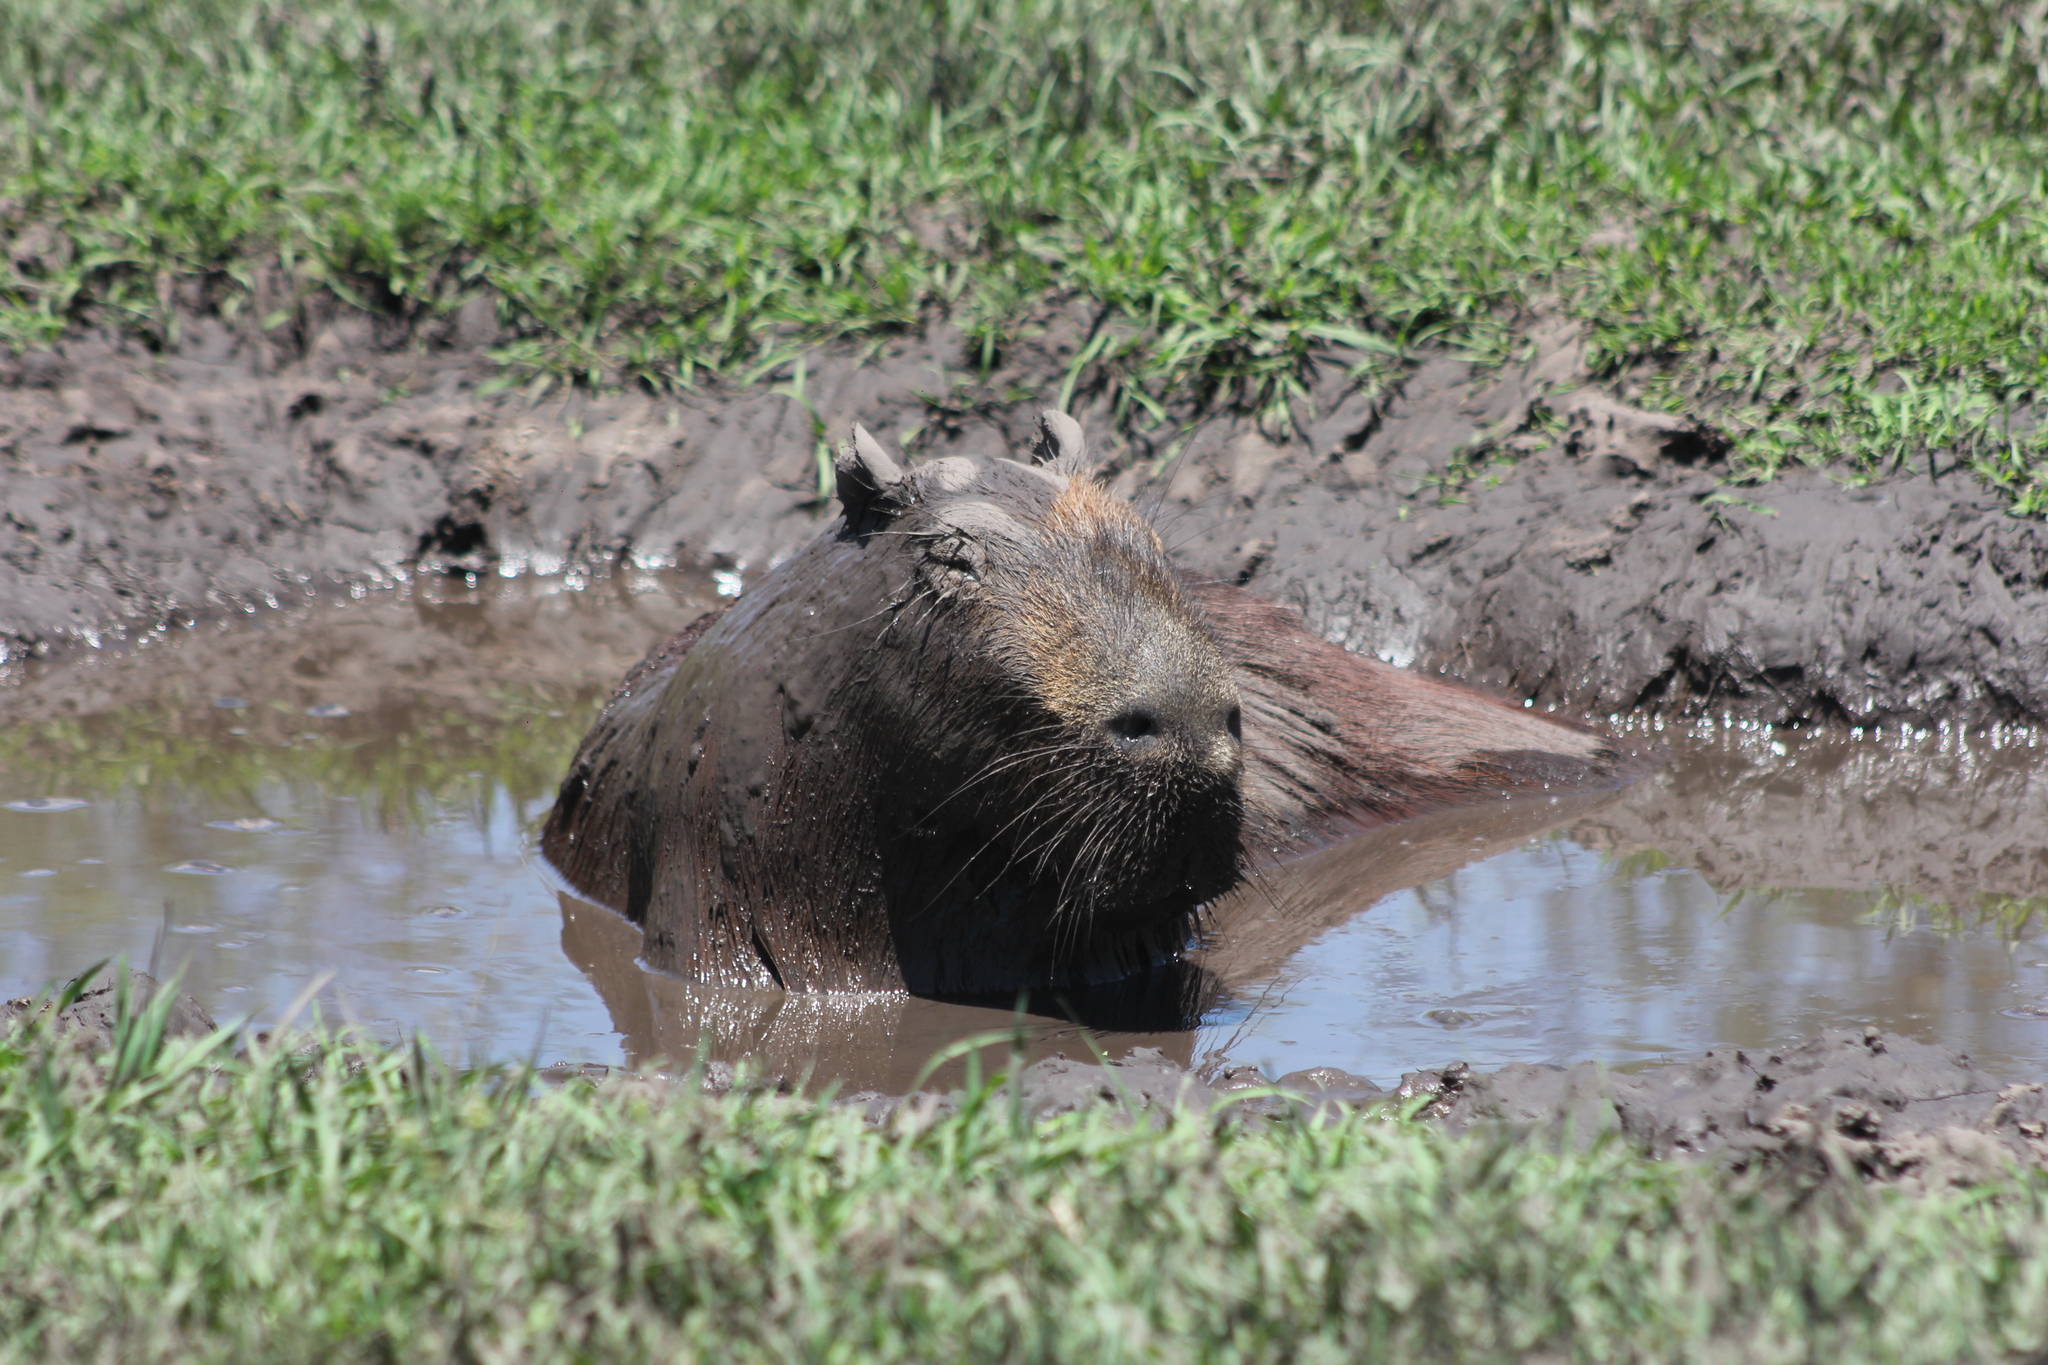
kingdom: Animalia
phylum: Chordata
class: Mammalia
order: Rodentia
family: Caviidae
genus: Hydrochoerus
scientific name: Hydrochoerus hydrochaeris
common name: Capybara
